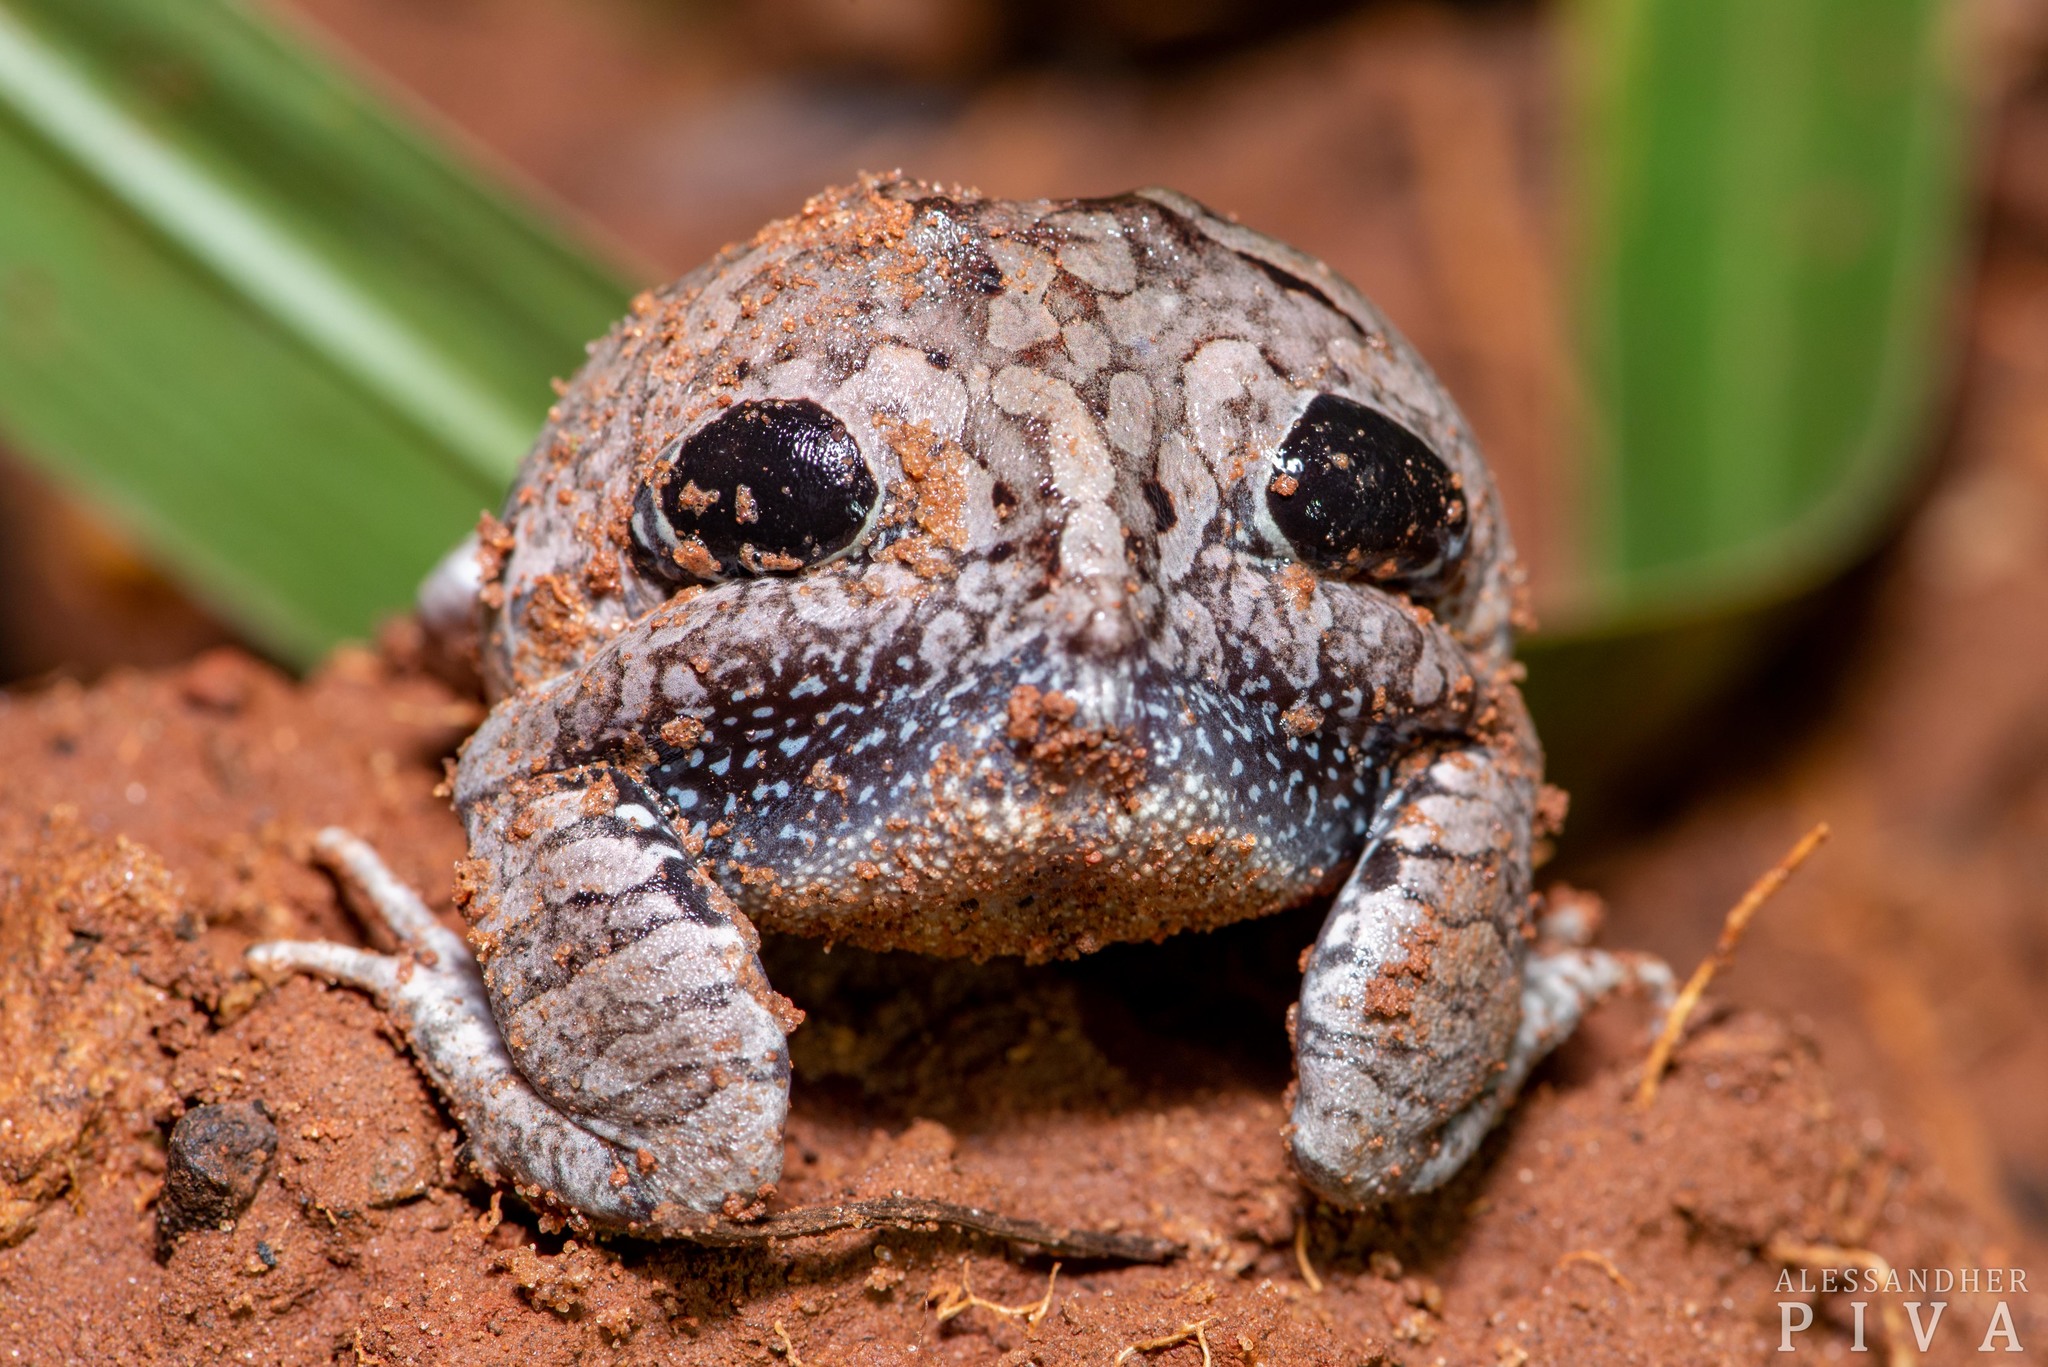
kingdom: Animalia
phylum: Chordata
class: Amphibia
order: Anura
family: Leptodactylidae
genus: Physalaemus
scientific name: Physalaemus nattereri
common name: Cuyaba dwarf frog
